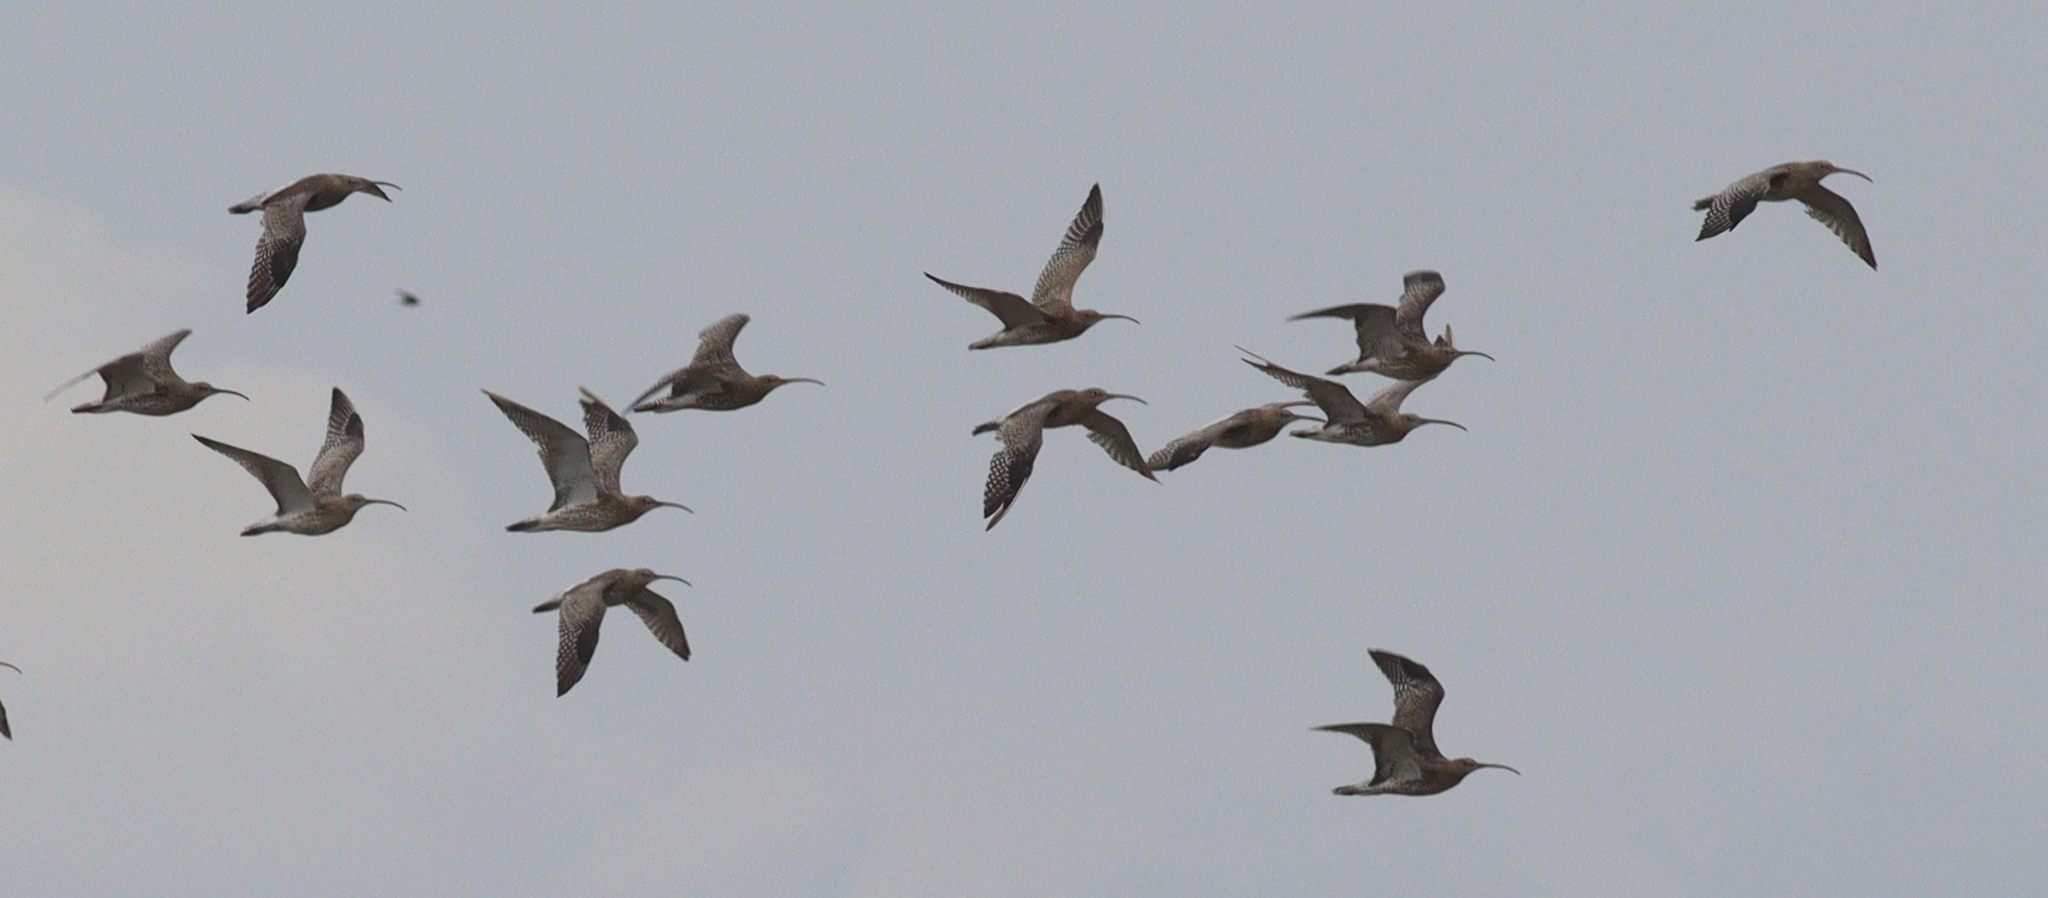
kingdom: Animalia
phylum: Chordata
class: Aves
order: Charadriiformes
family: Scolopacidae
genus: Numenius
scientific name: Numenius arquata
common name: Eurasian curlew
